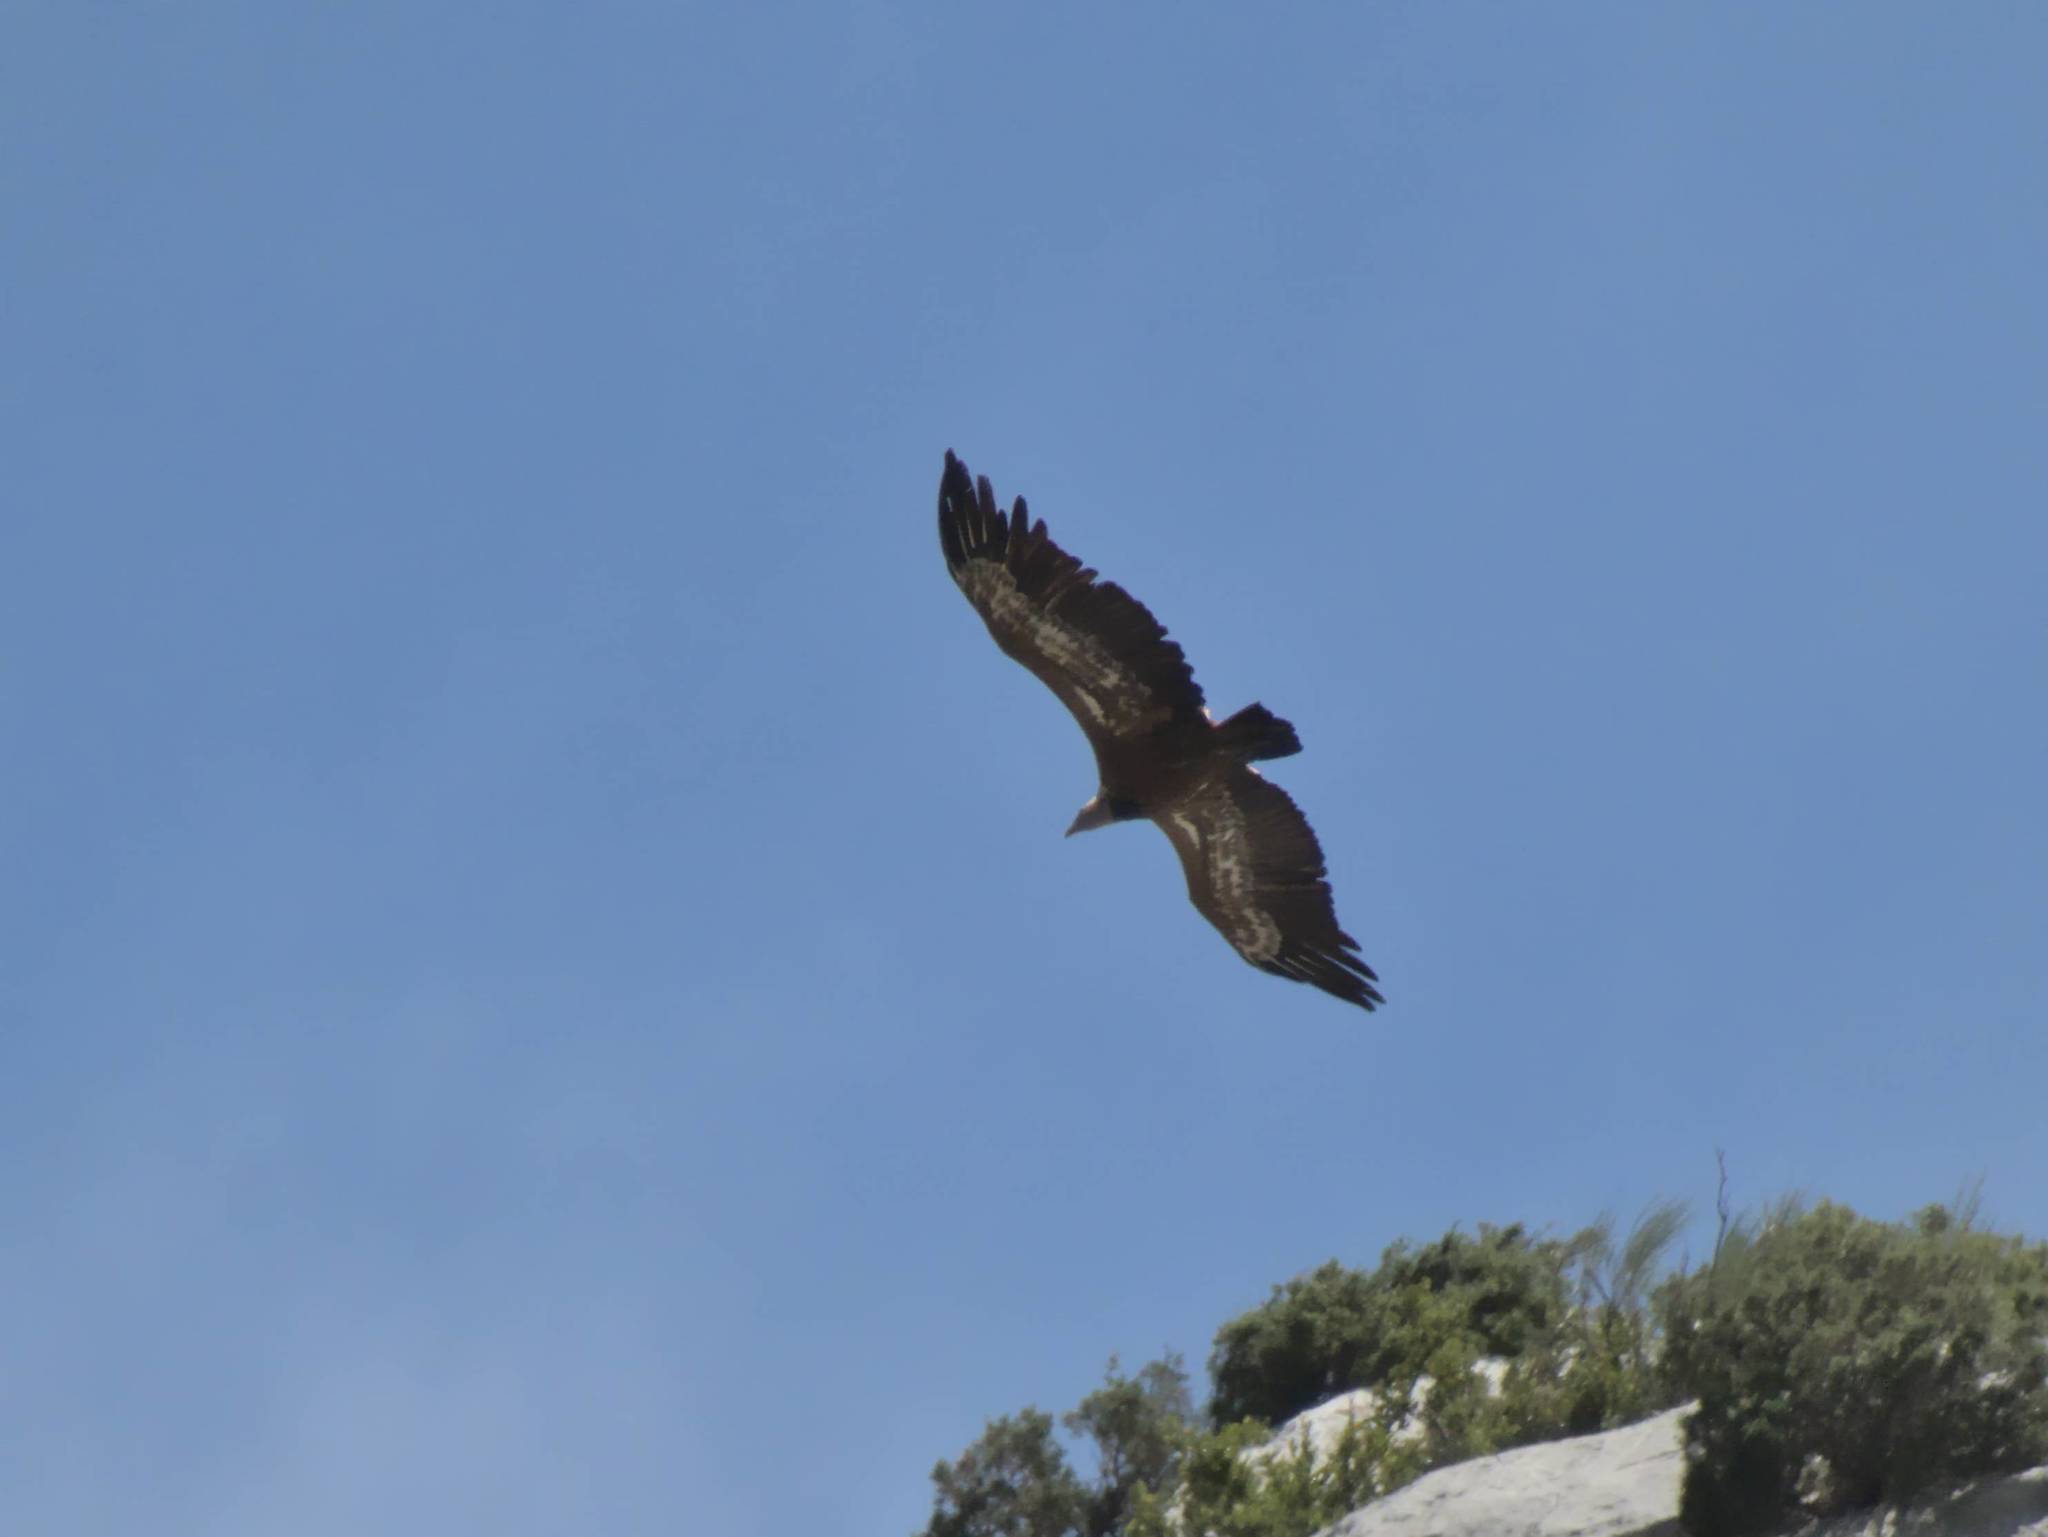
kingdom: Animalia
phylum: Chordata
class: Aves
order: Accipitriformes
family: Accipitridae
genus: Gyps
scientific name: Gyps fulvus
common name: Griffon vulture
